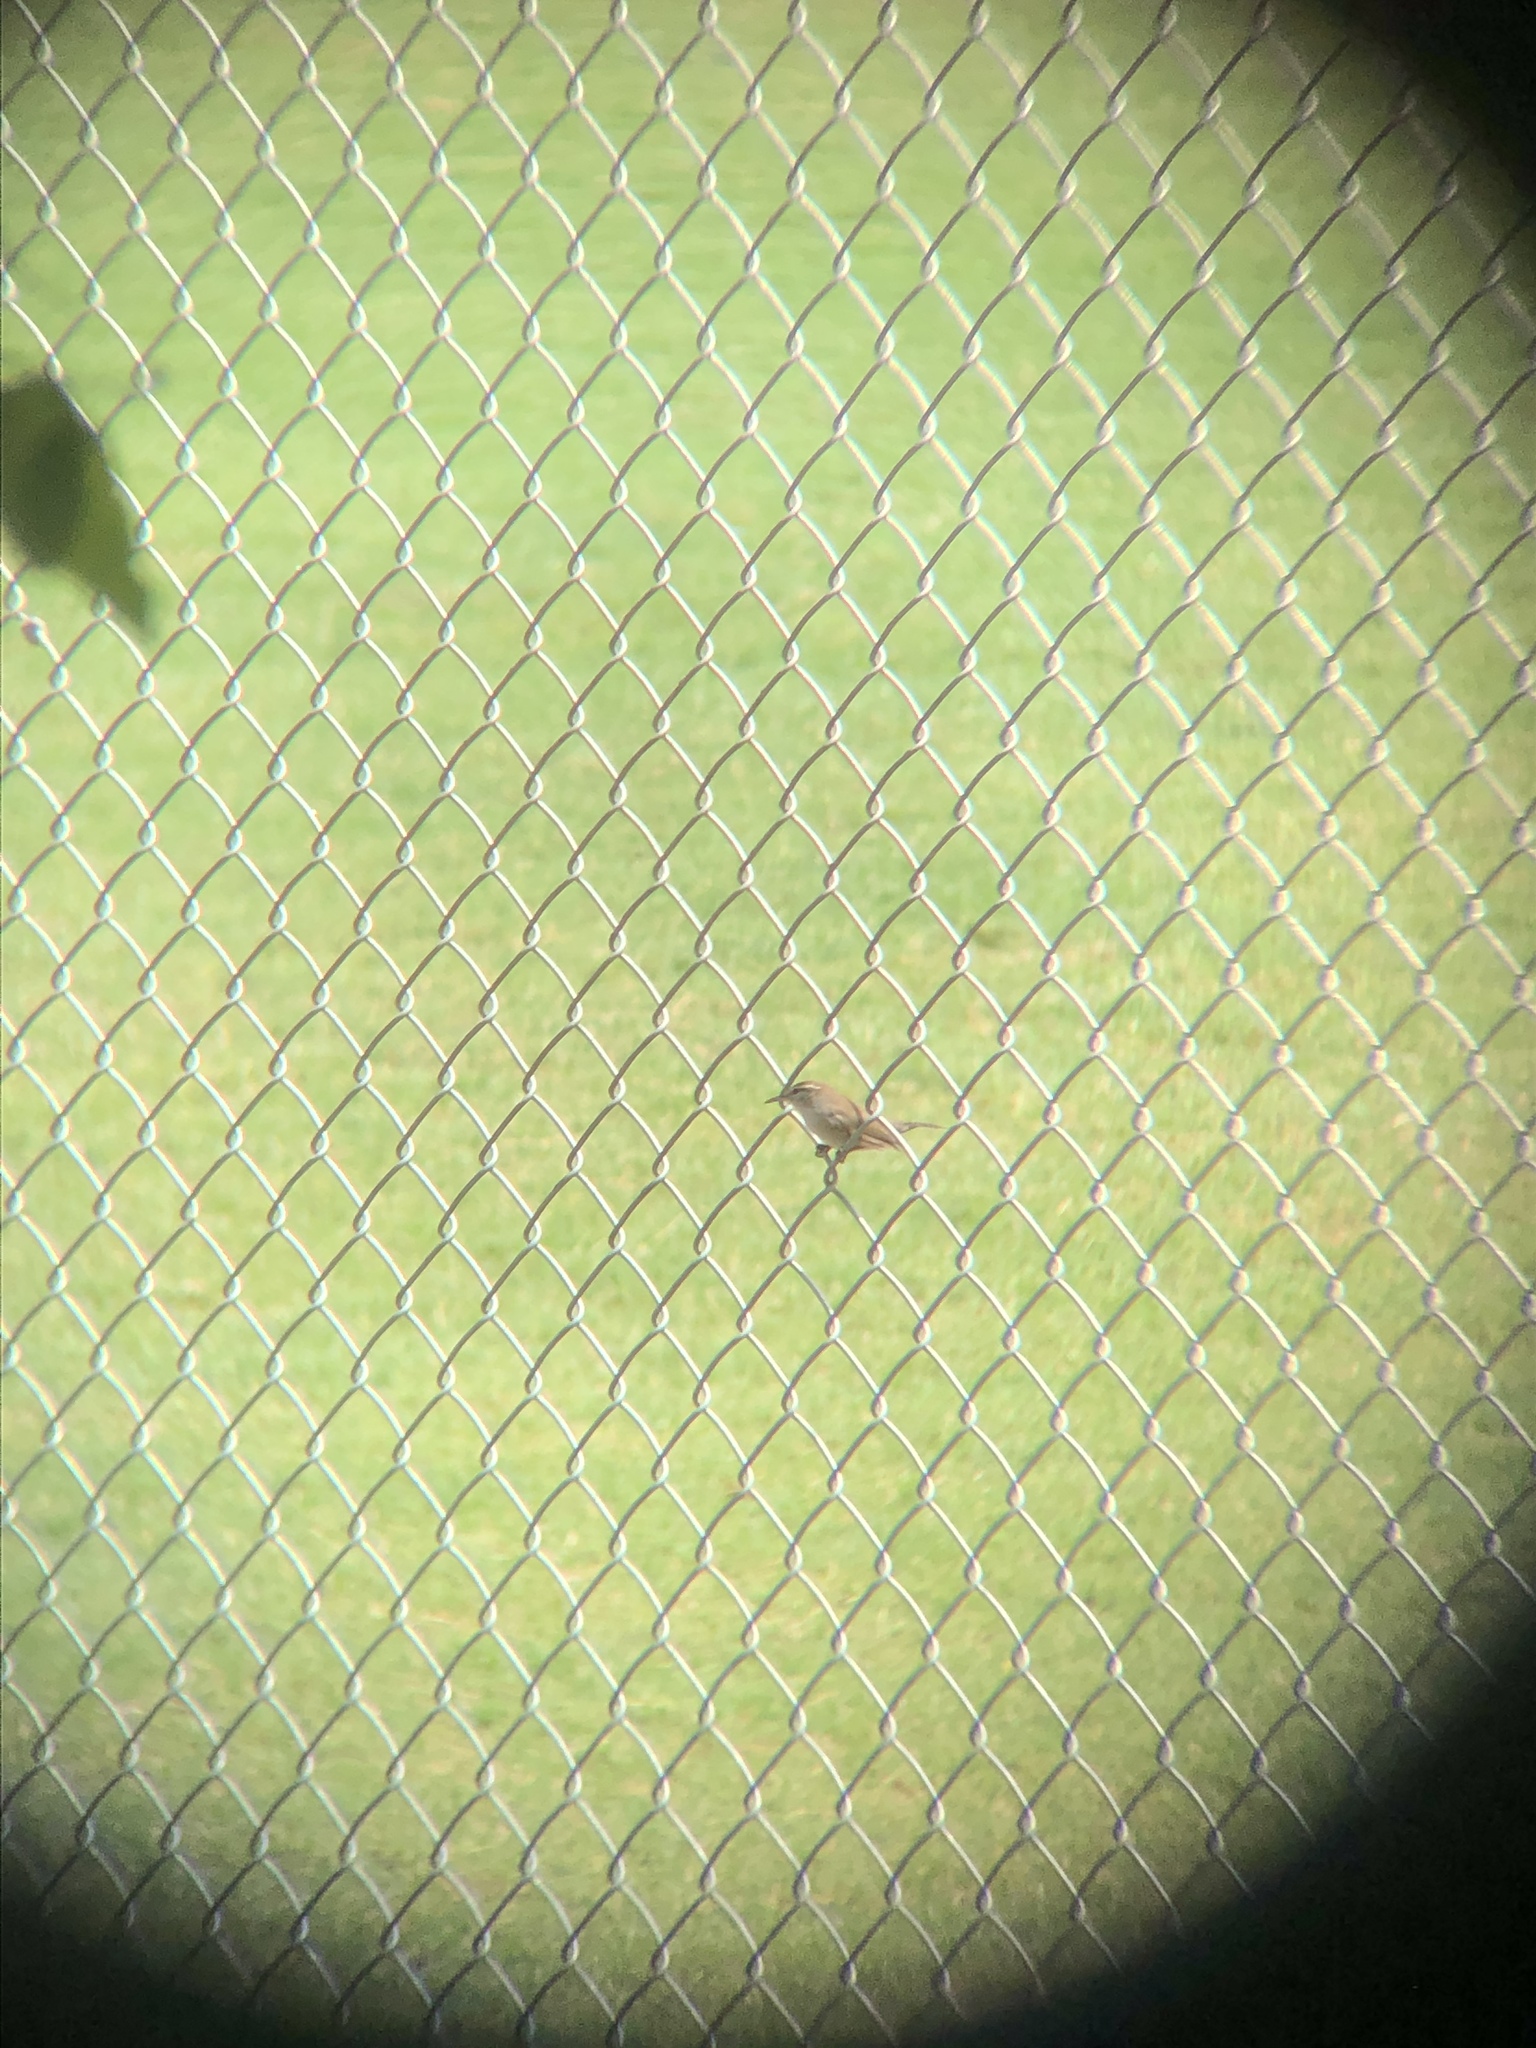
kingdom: Animalia
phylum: Chordata
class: Aves
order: Passeriformes
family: Troglodytidae
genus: Thryomanes
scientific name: Thryomanes bewickii
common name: Bewick's wren
